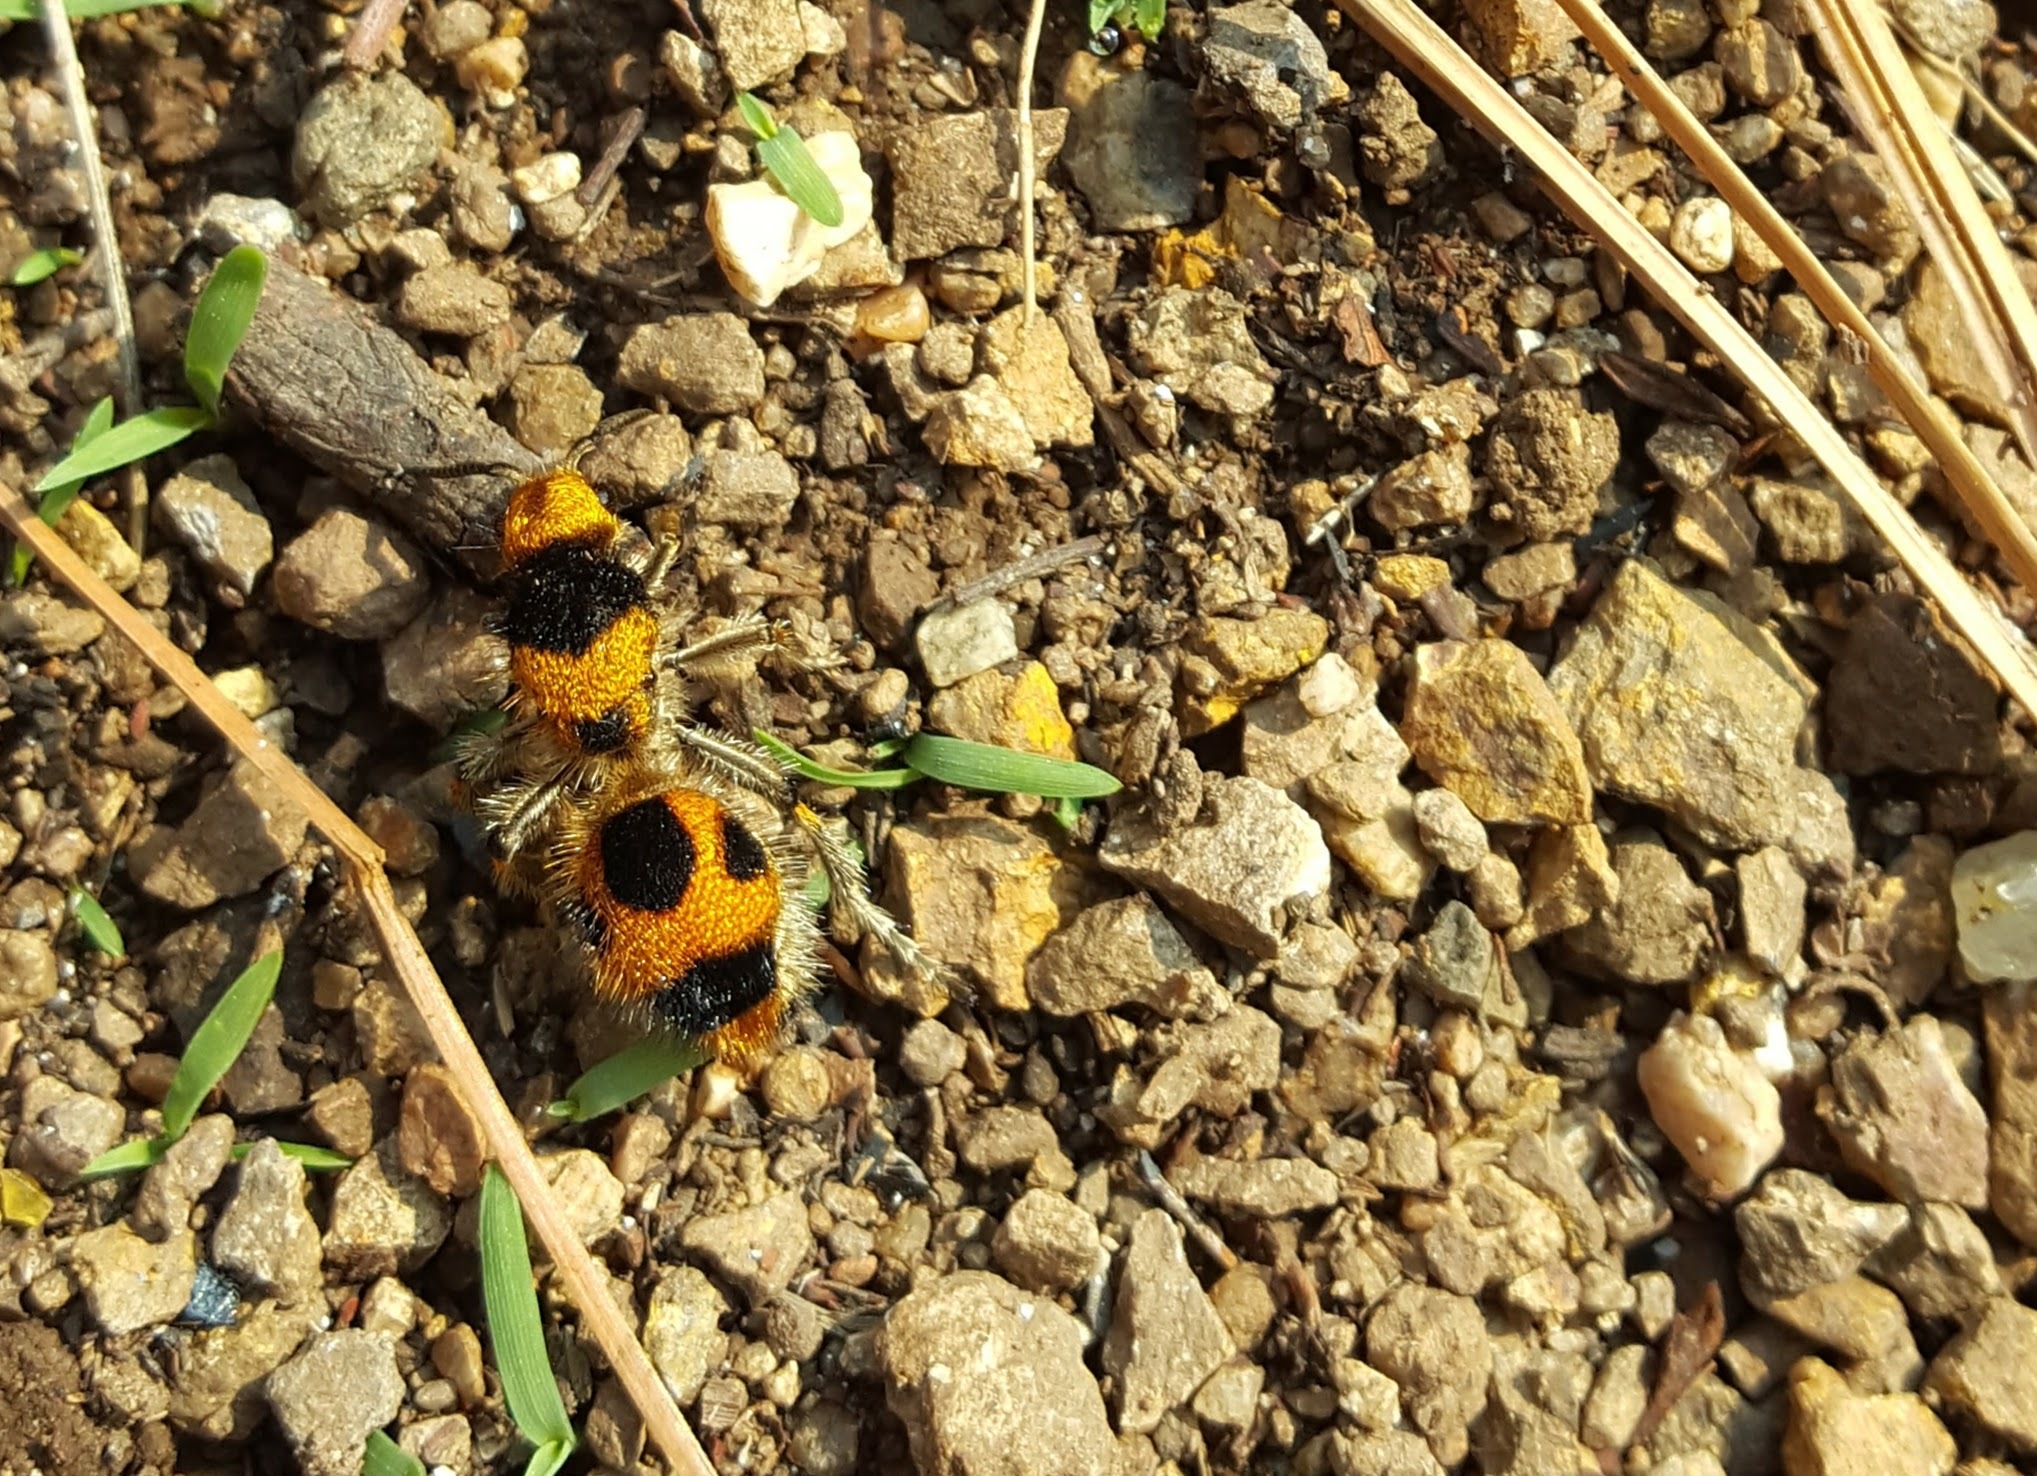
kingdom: Animalia
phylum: Arthropoda
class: Insecta
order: Hymenoptera
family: Mutillidae
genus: Dasymutilla
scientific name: Dasymutilla pulchra
